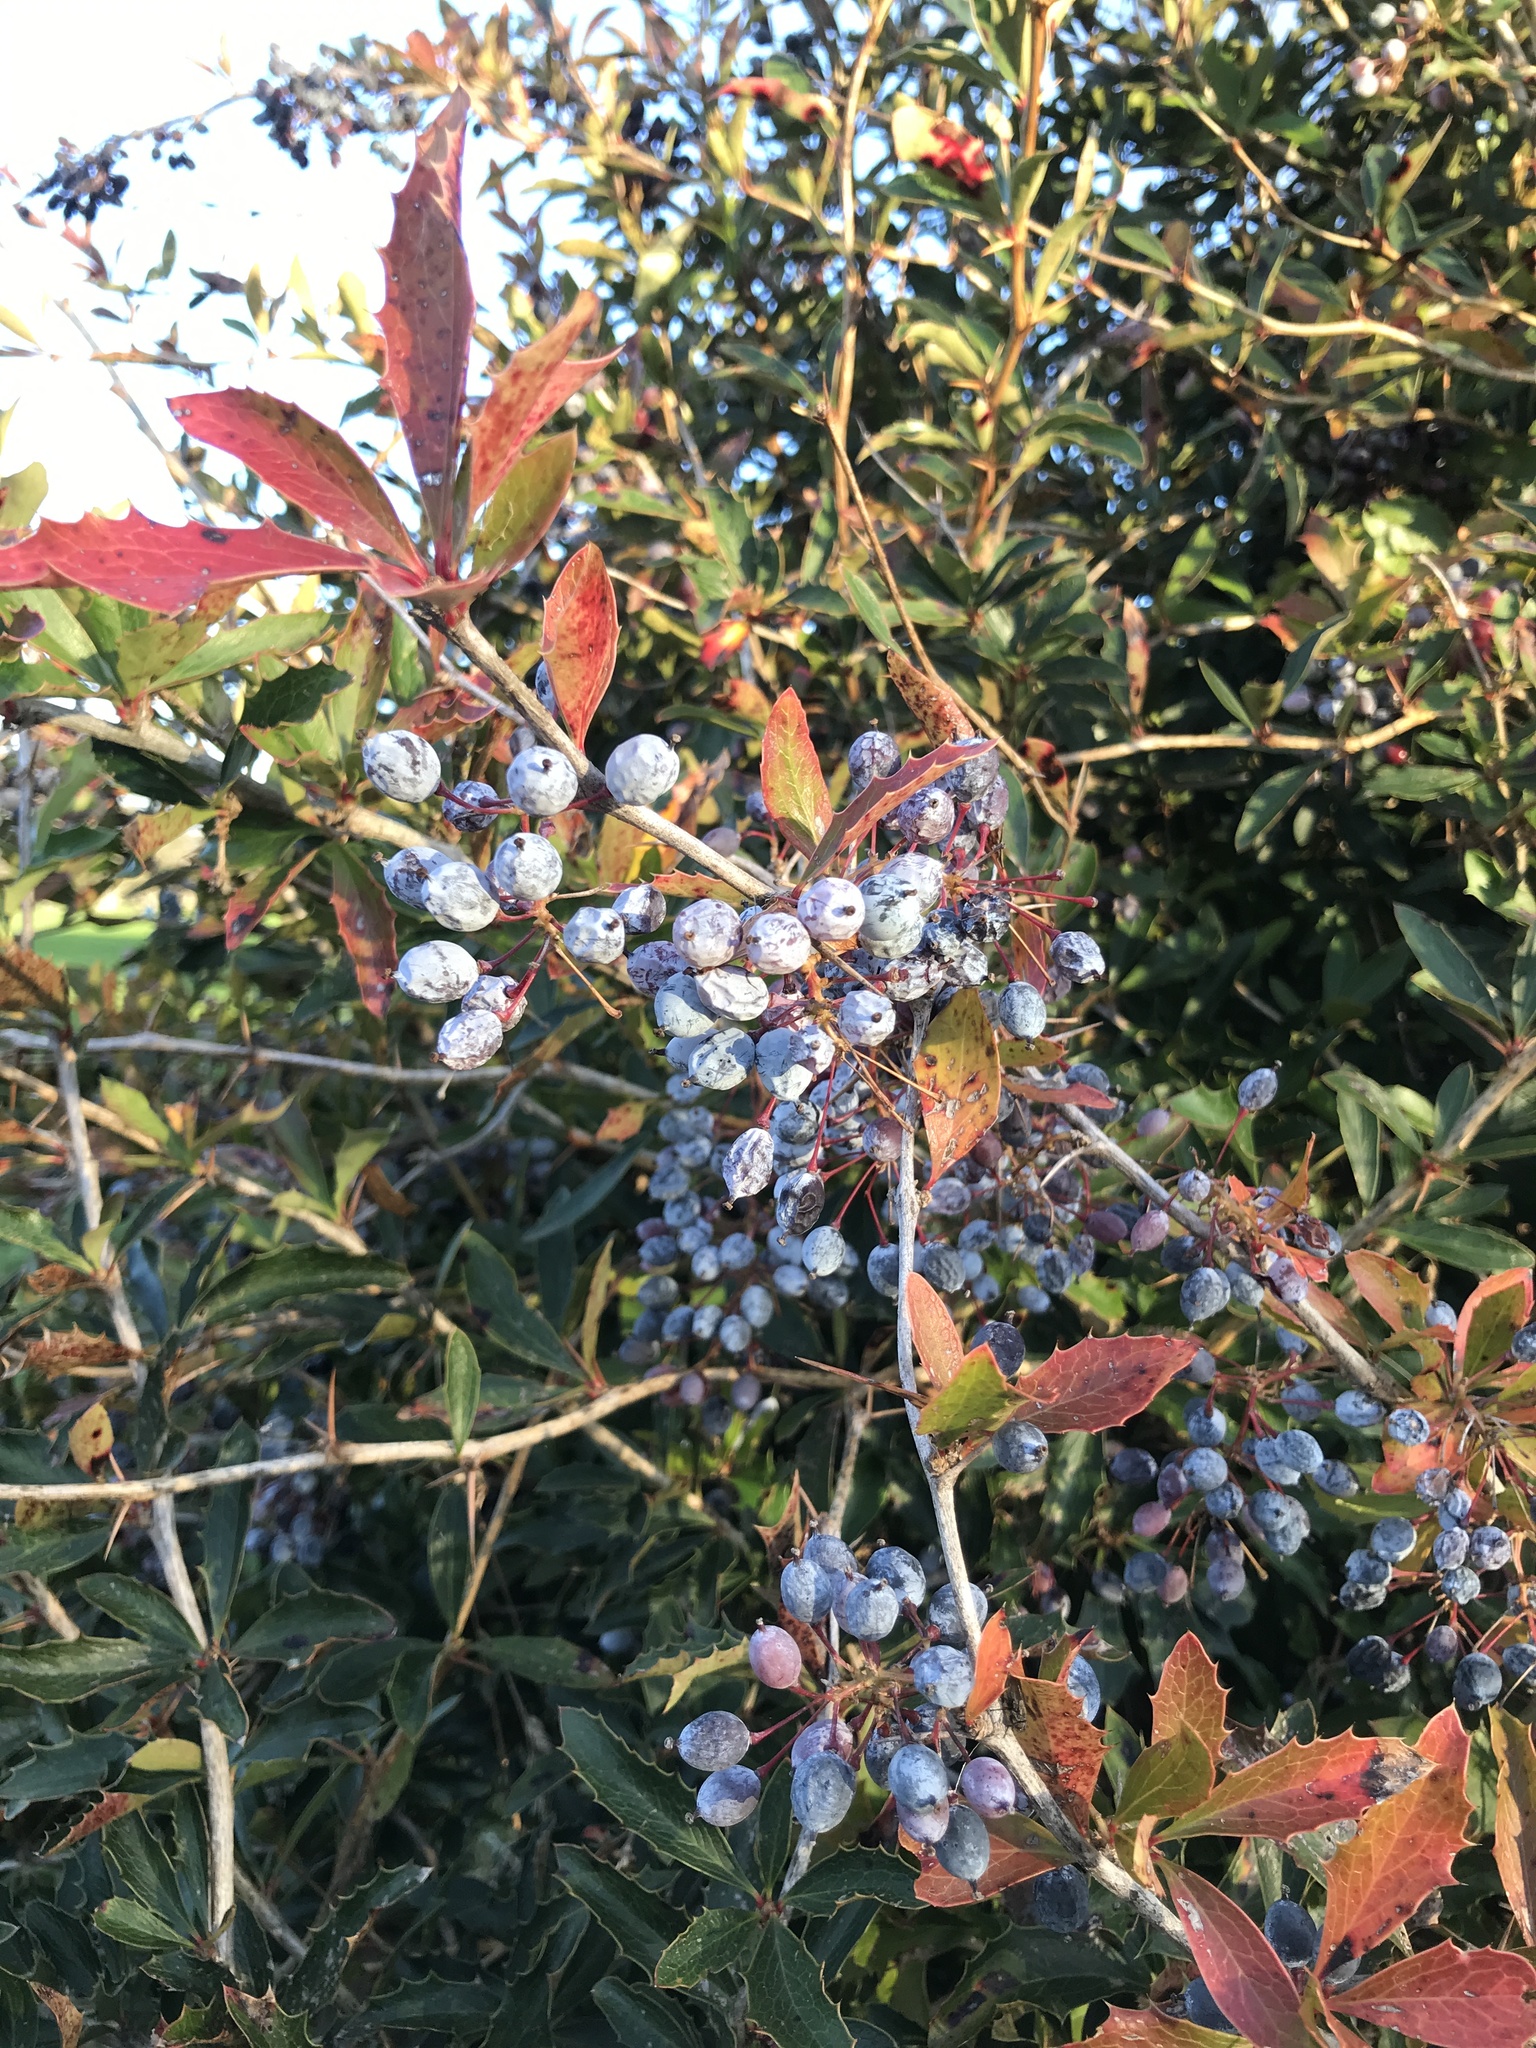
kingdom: Plantae
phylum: Tracheophyta
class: Magnoliopsida
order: Ranunculales
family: Berberidaceae
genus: Berberis
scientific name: Berberis glaucocarpa
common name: Great barberry
